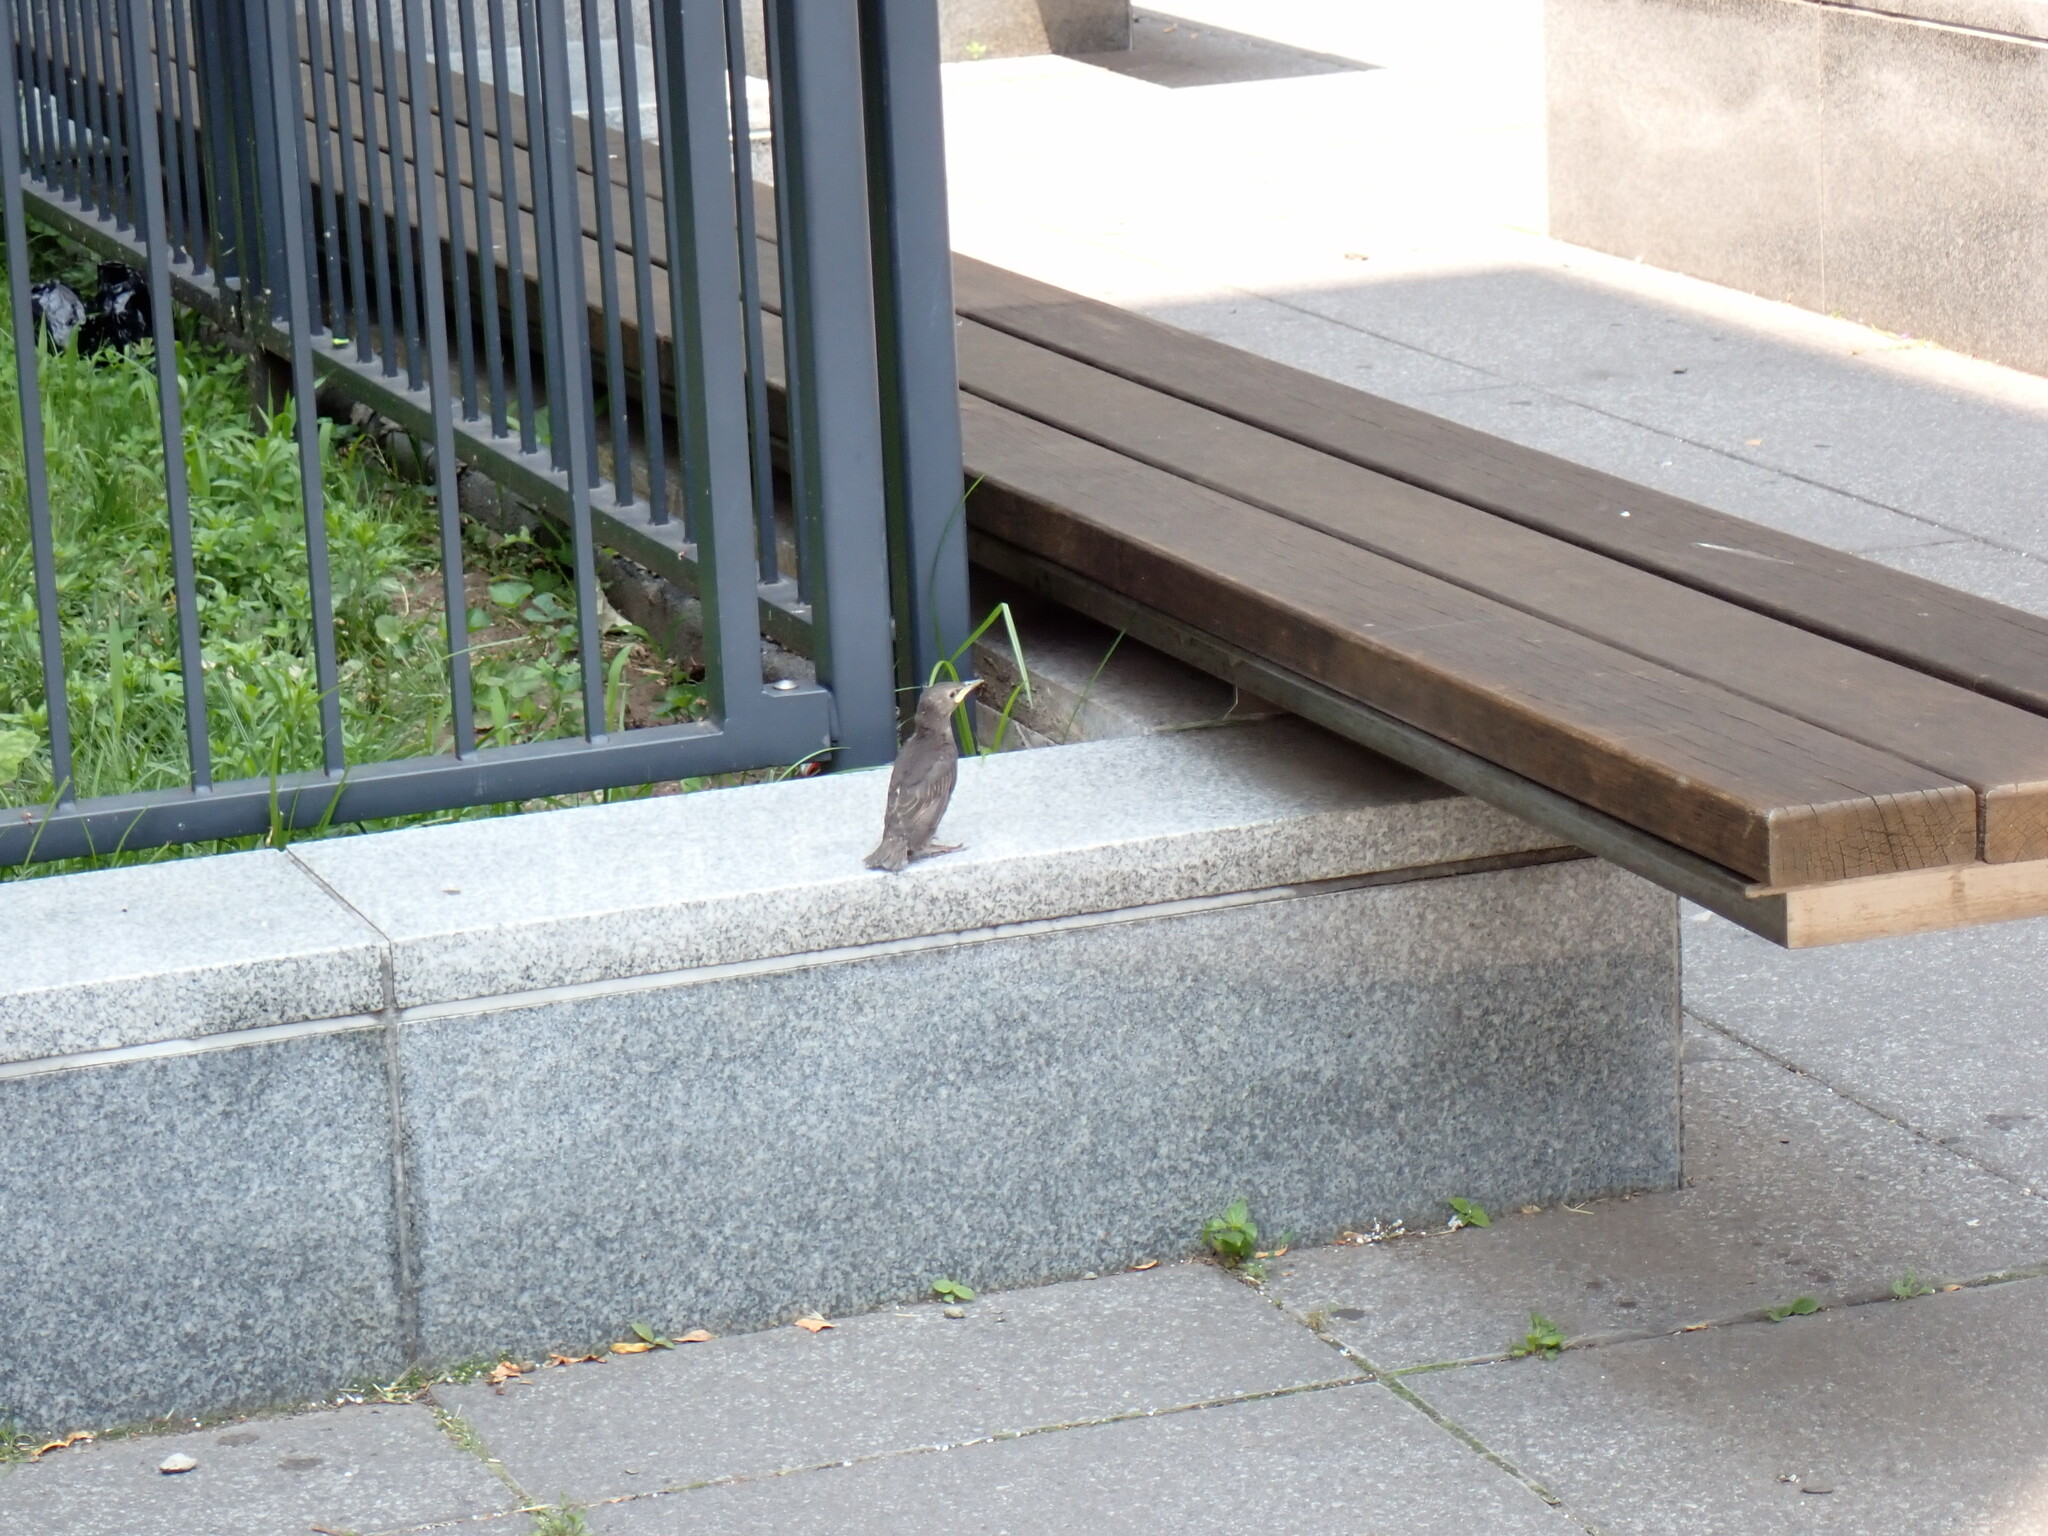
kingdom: Animalia
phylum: Chordata
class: Aves
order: Passeriformes
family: Sturnidae
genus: Sturnus
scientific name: Sturnus vulgaris
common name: Common starling
